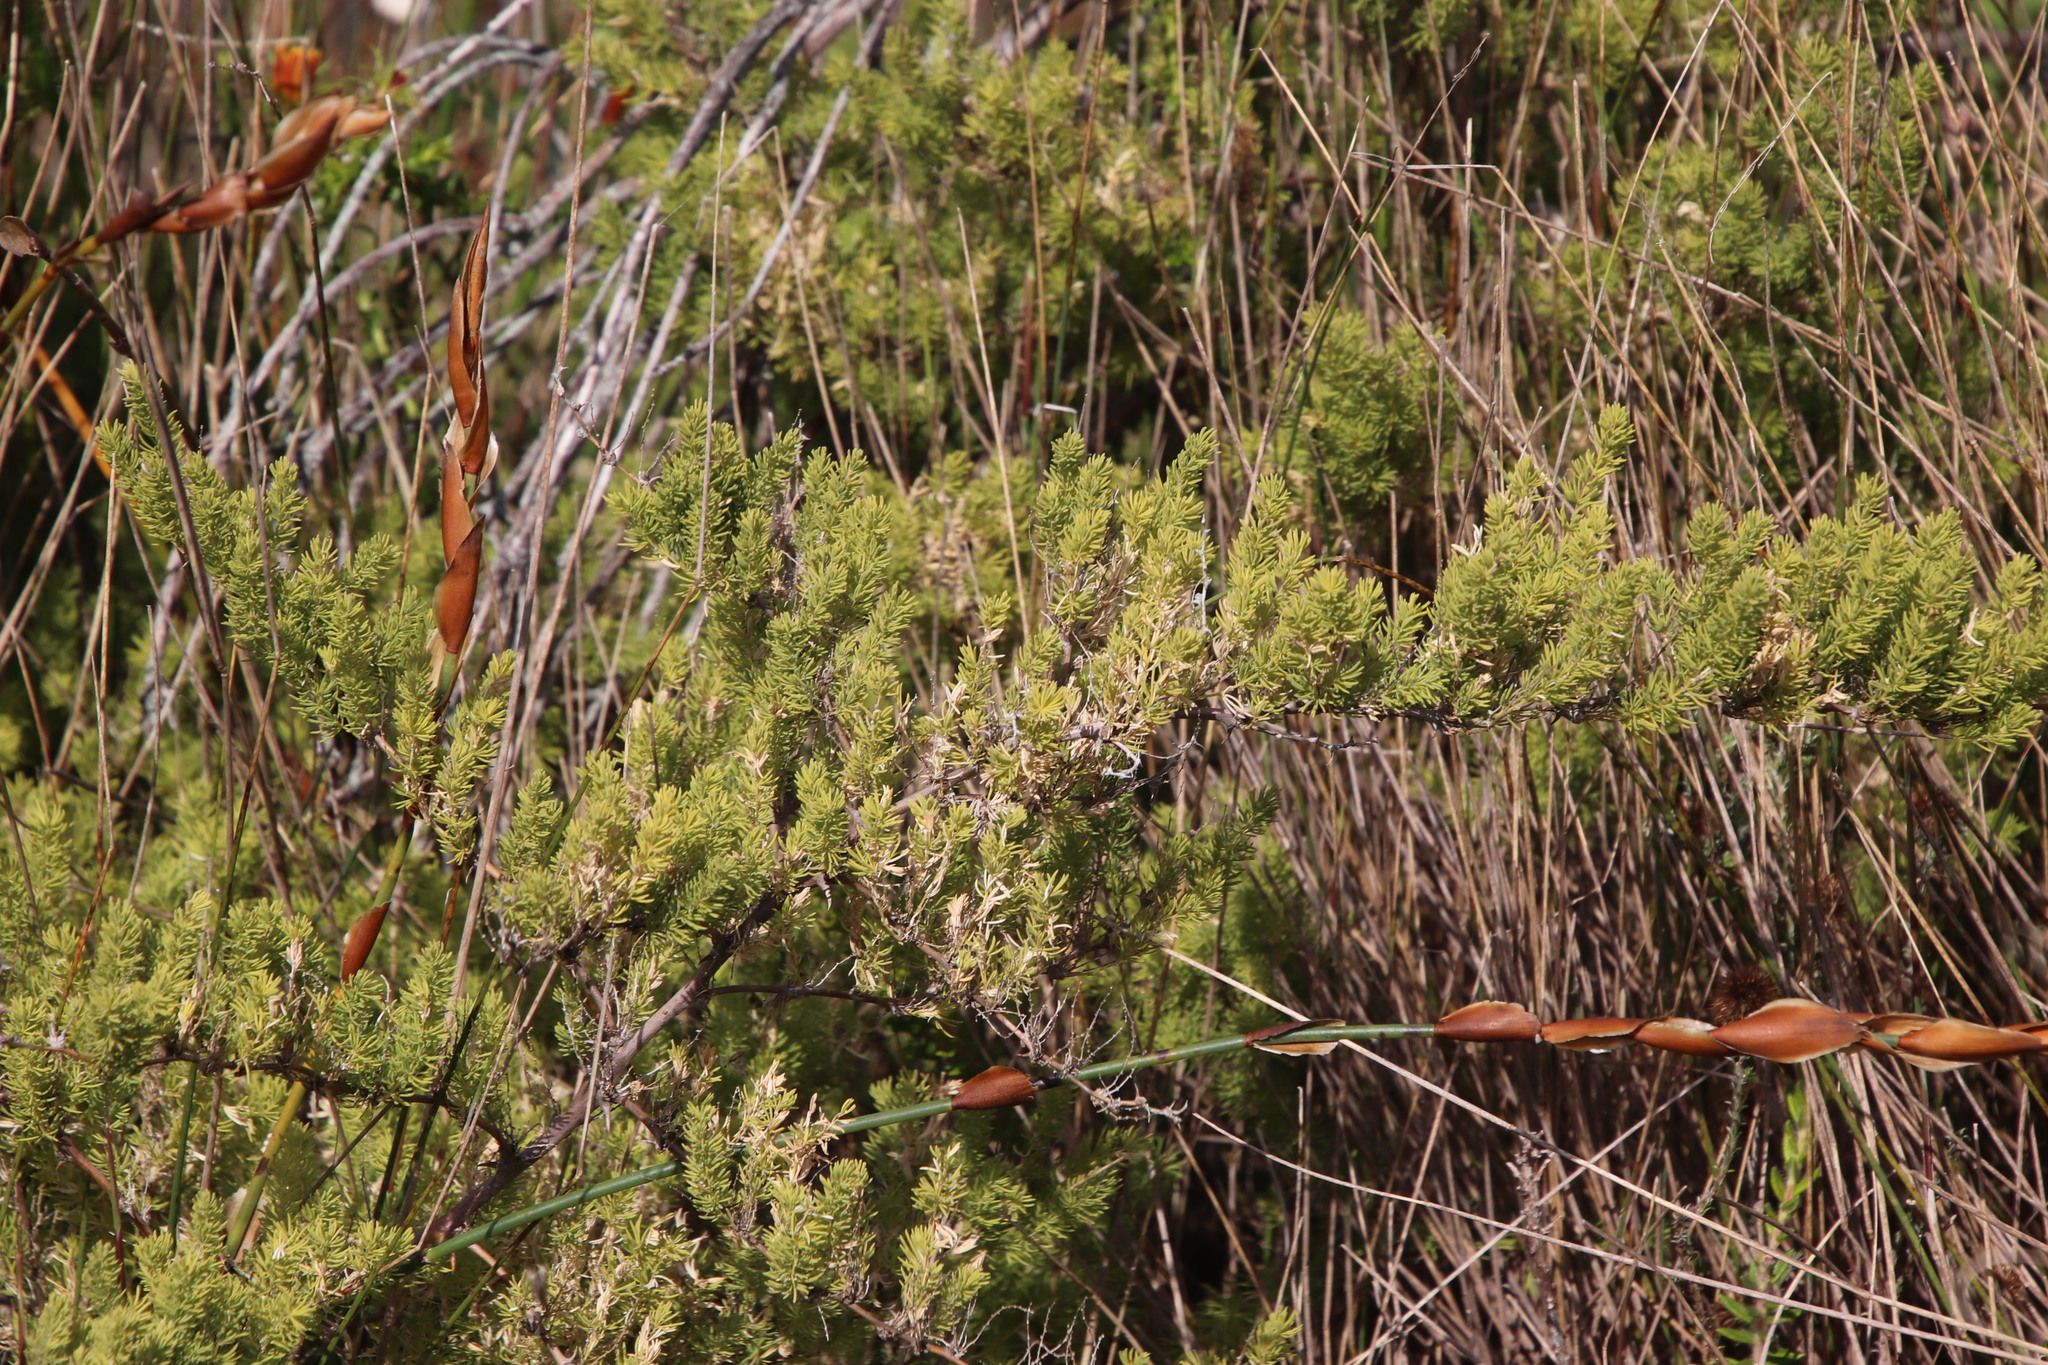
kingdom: Plantae
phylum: Tracheophyta
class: Liliopsida
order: Asparagales
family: Asparagaceae
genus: Asparagus
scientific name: Asparagus rubicundus
